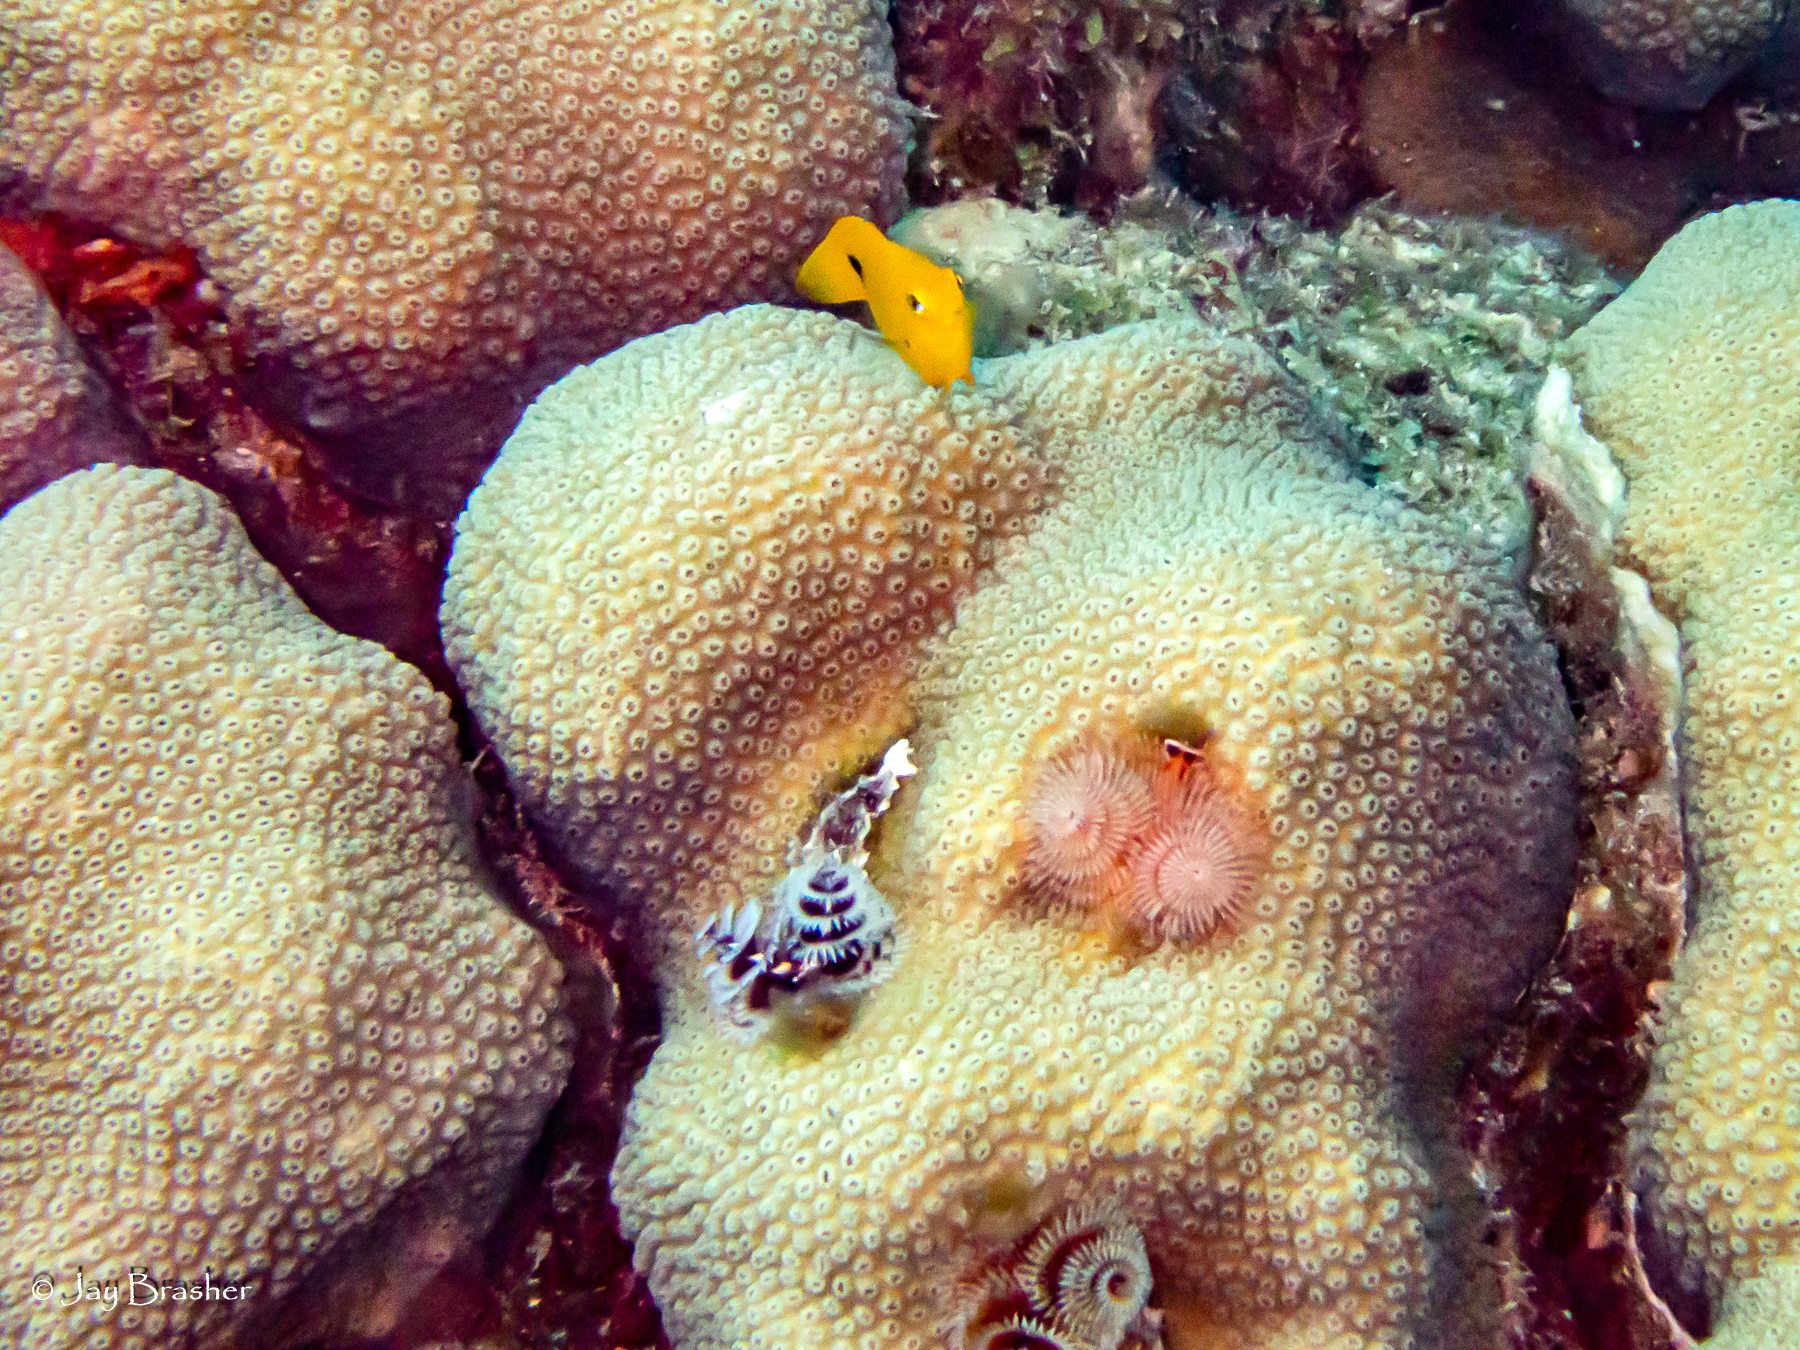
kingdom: Animalia
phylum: Chordata
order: Perciformes
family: Pomacentridae
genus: Stegastes
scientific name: Stegastes planifrons
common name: Threespot damselfish
